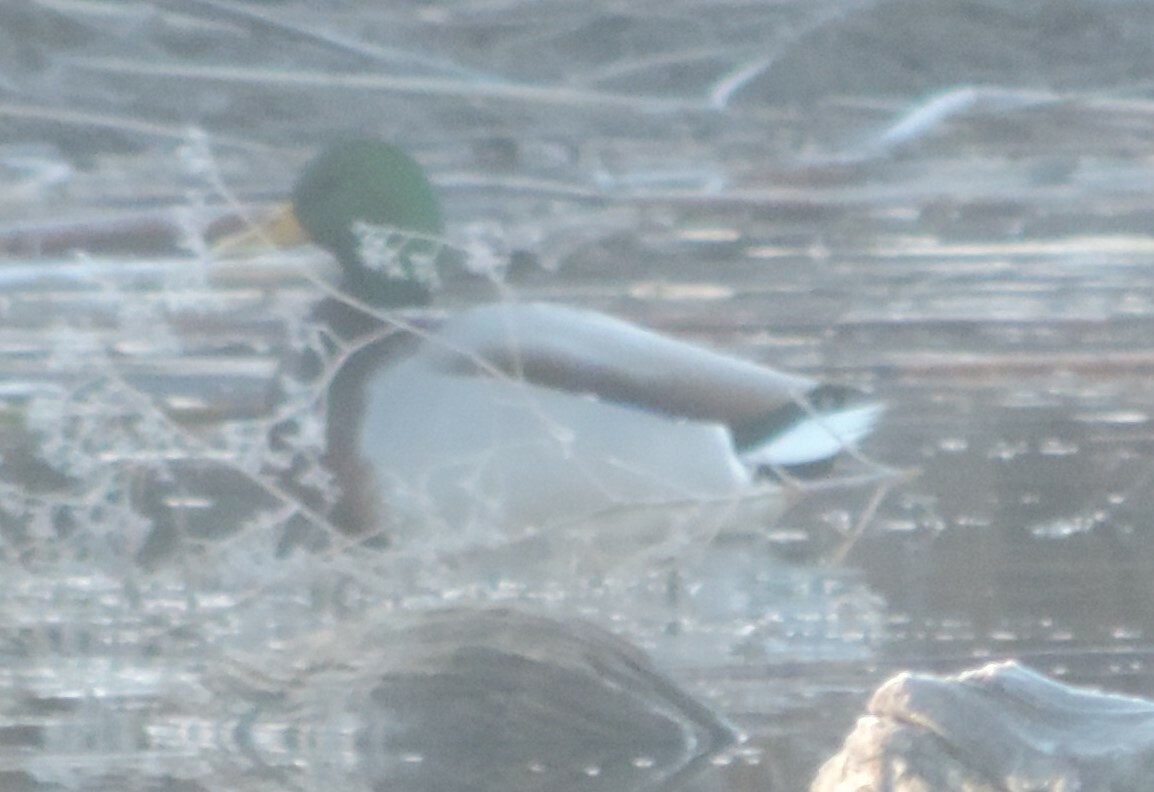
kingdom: Animalia
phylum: Chordata
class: Aves
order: Anseriformes
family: Anatidae
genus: Anas
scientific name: Anas platyrhynchos
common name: Mallard
